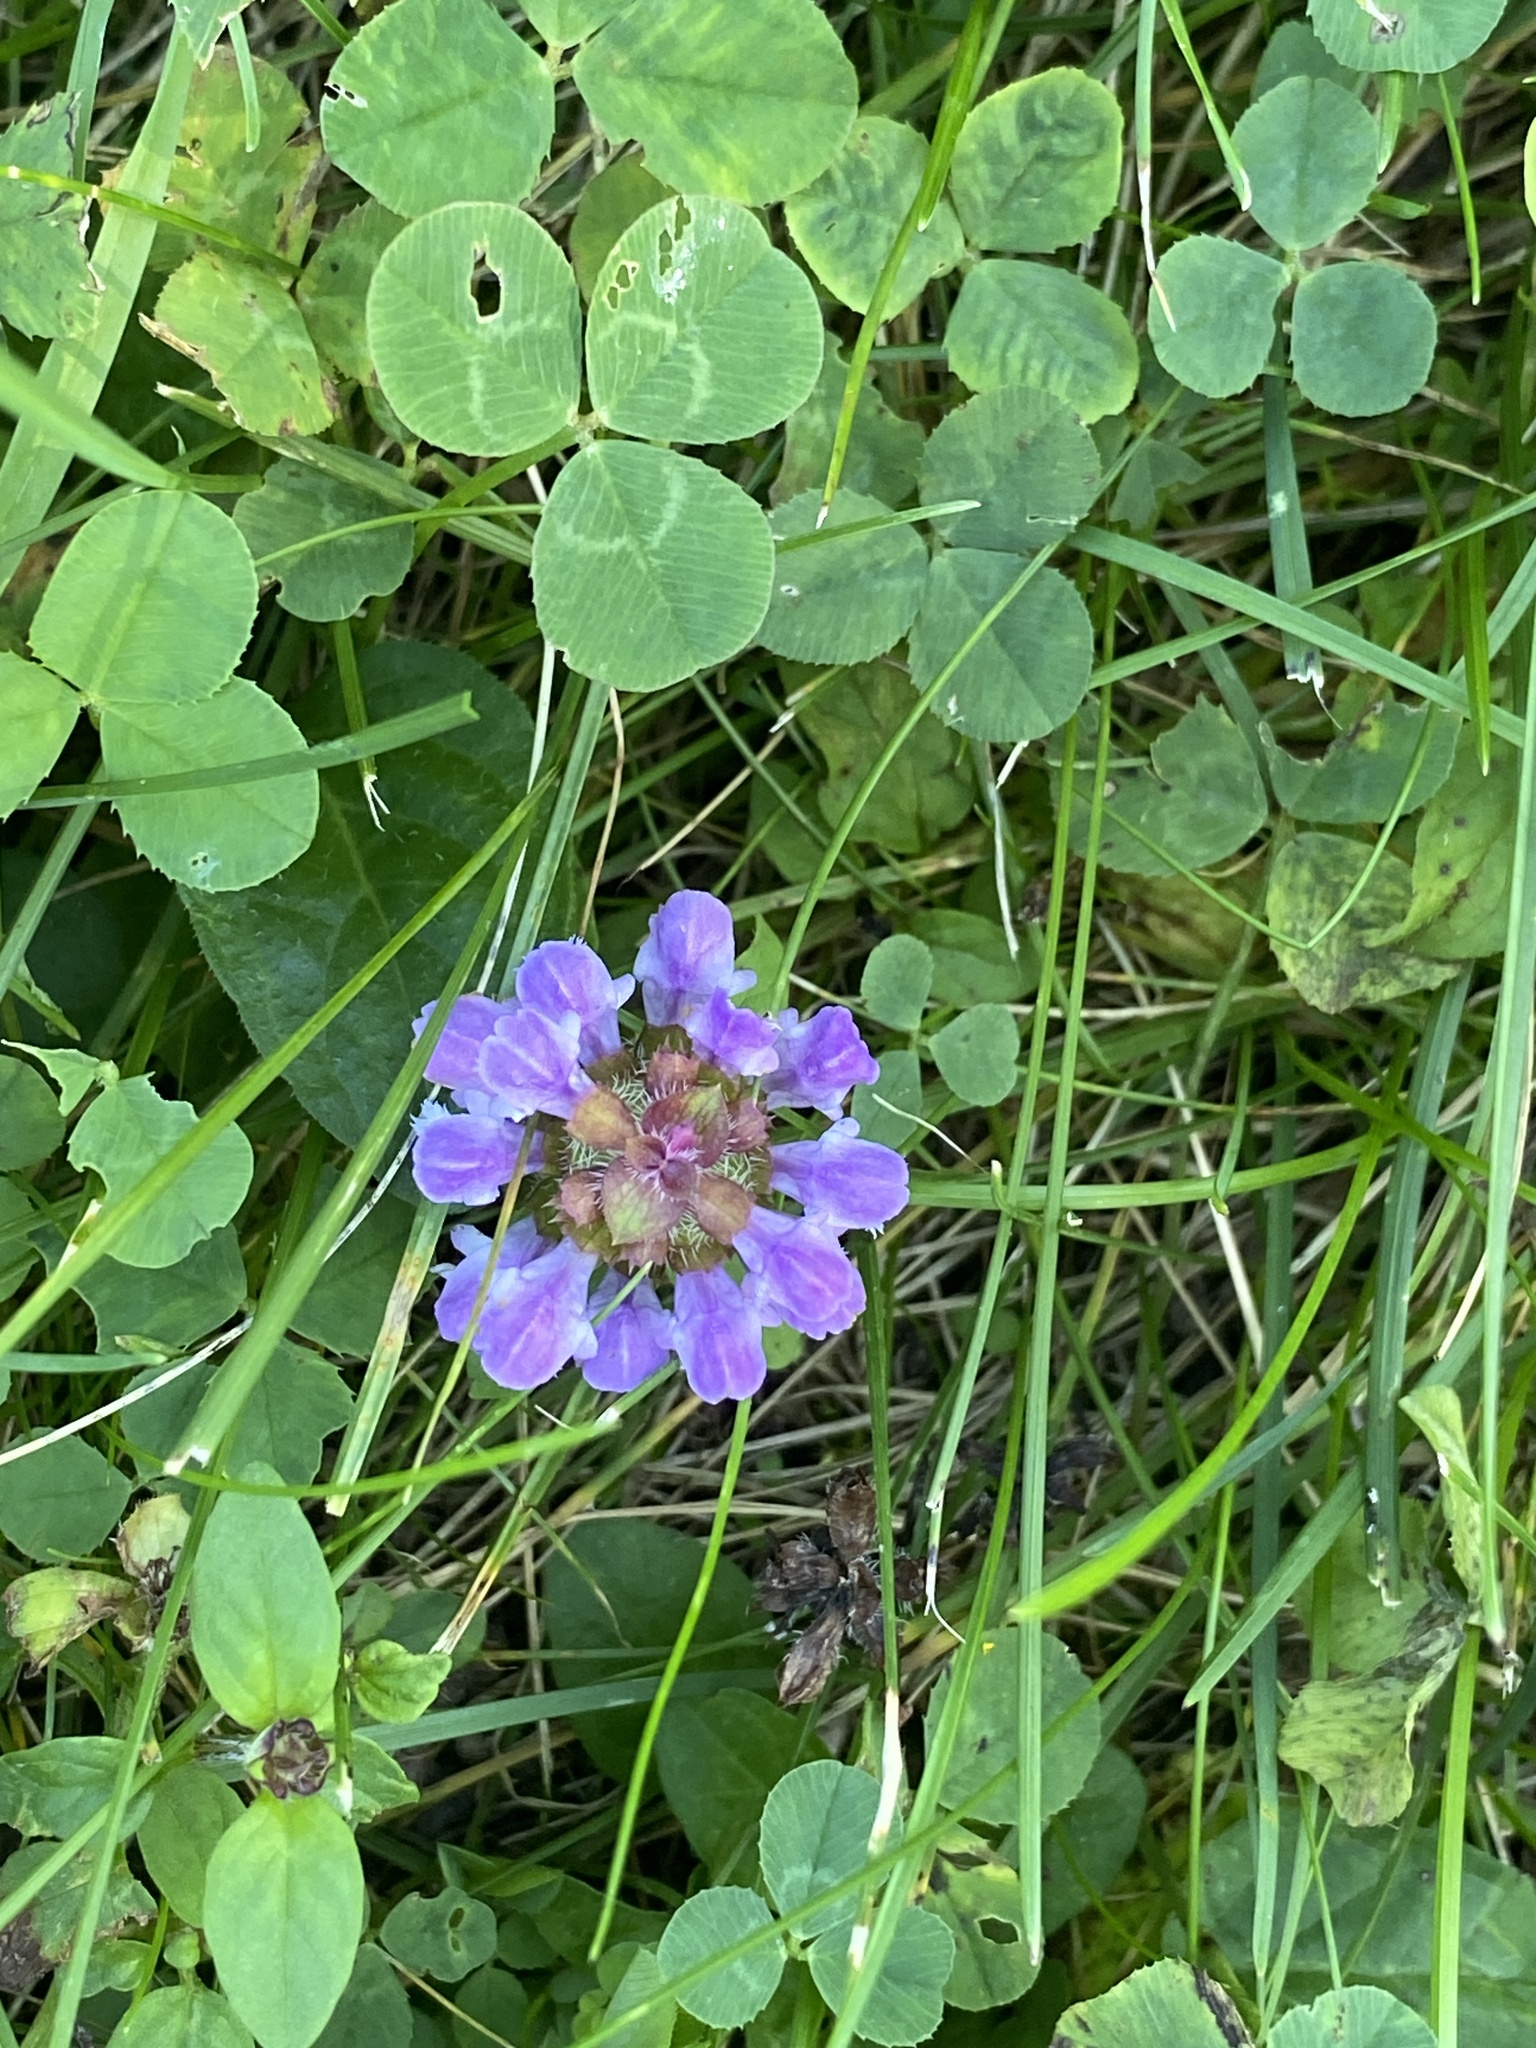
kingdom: Plantae
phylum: Tracheophyta
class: Magnoliopsida
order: Lamiales
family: Lamiaceae
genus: Prunella
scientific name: Prunella vulgaris
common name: Heal-all
